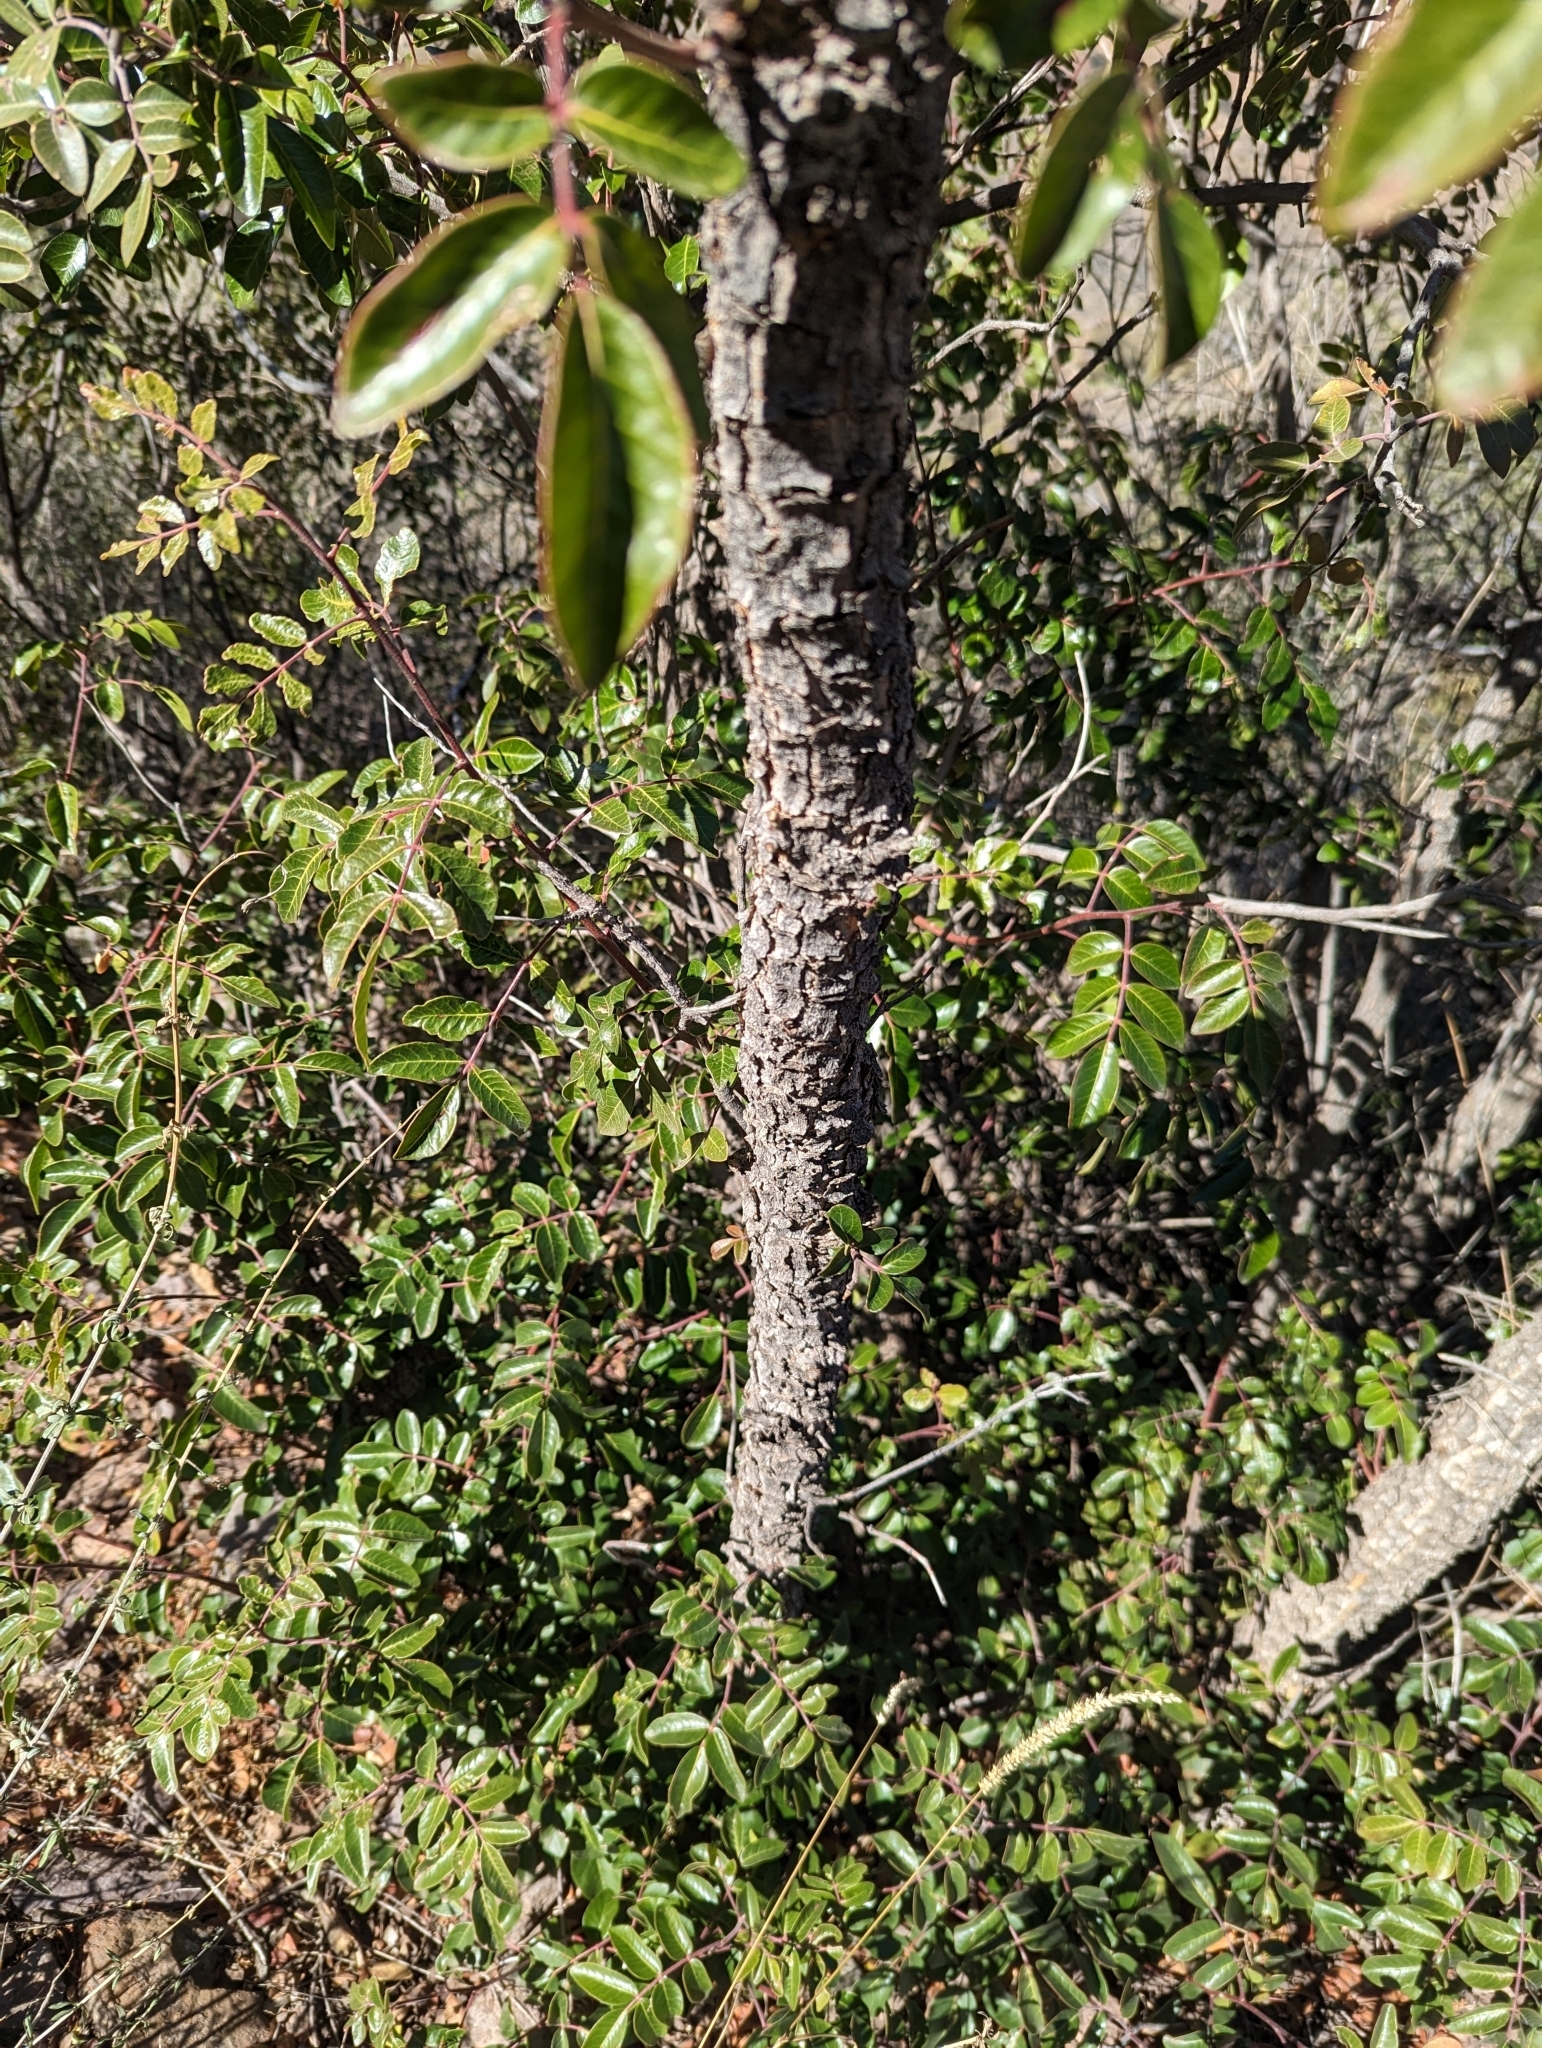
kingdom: Plantae
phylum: Tracheophyta
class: Magnoliopsida
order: Sapindales
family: Anacardiaceae
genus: Rhus
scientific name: Rhus virens
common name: Evergreen sumac
